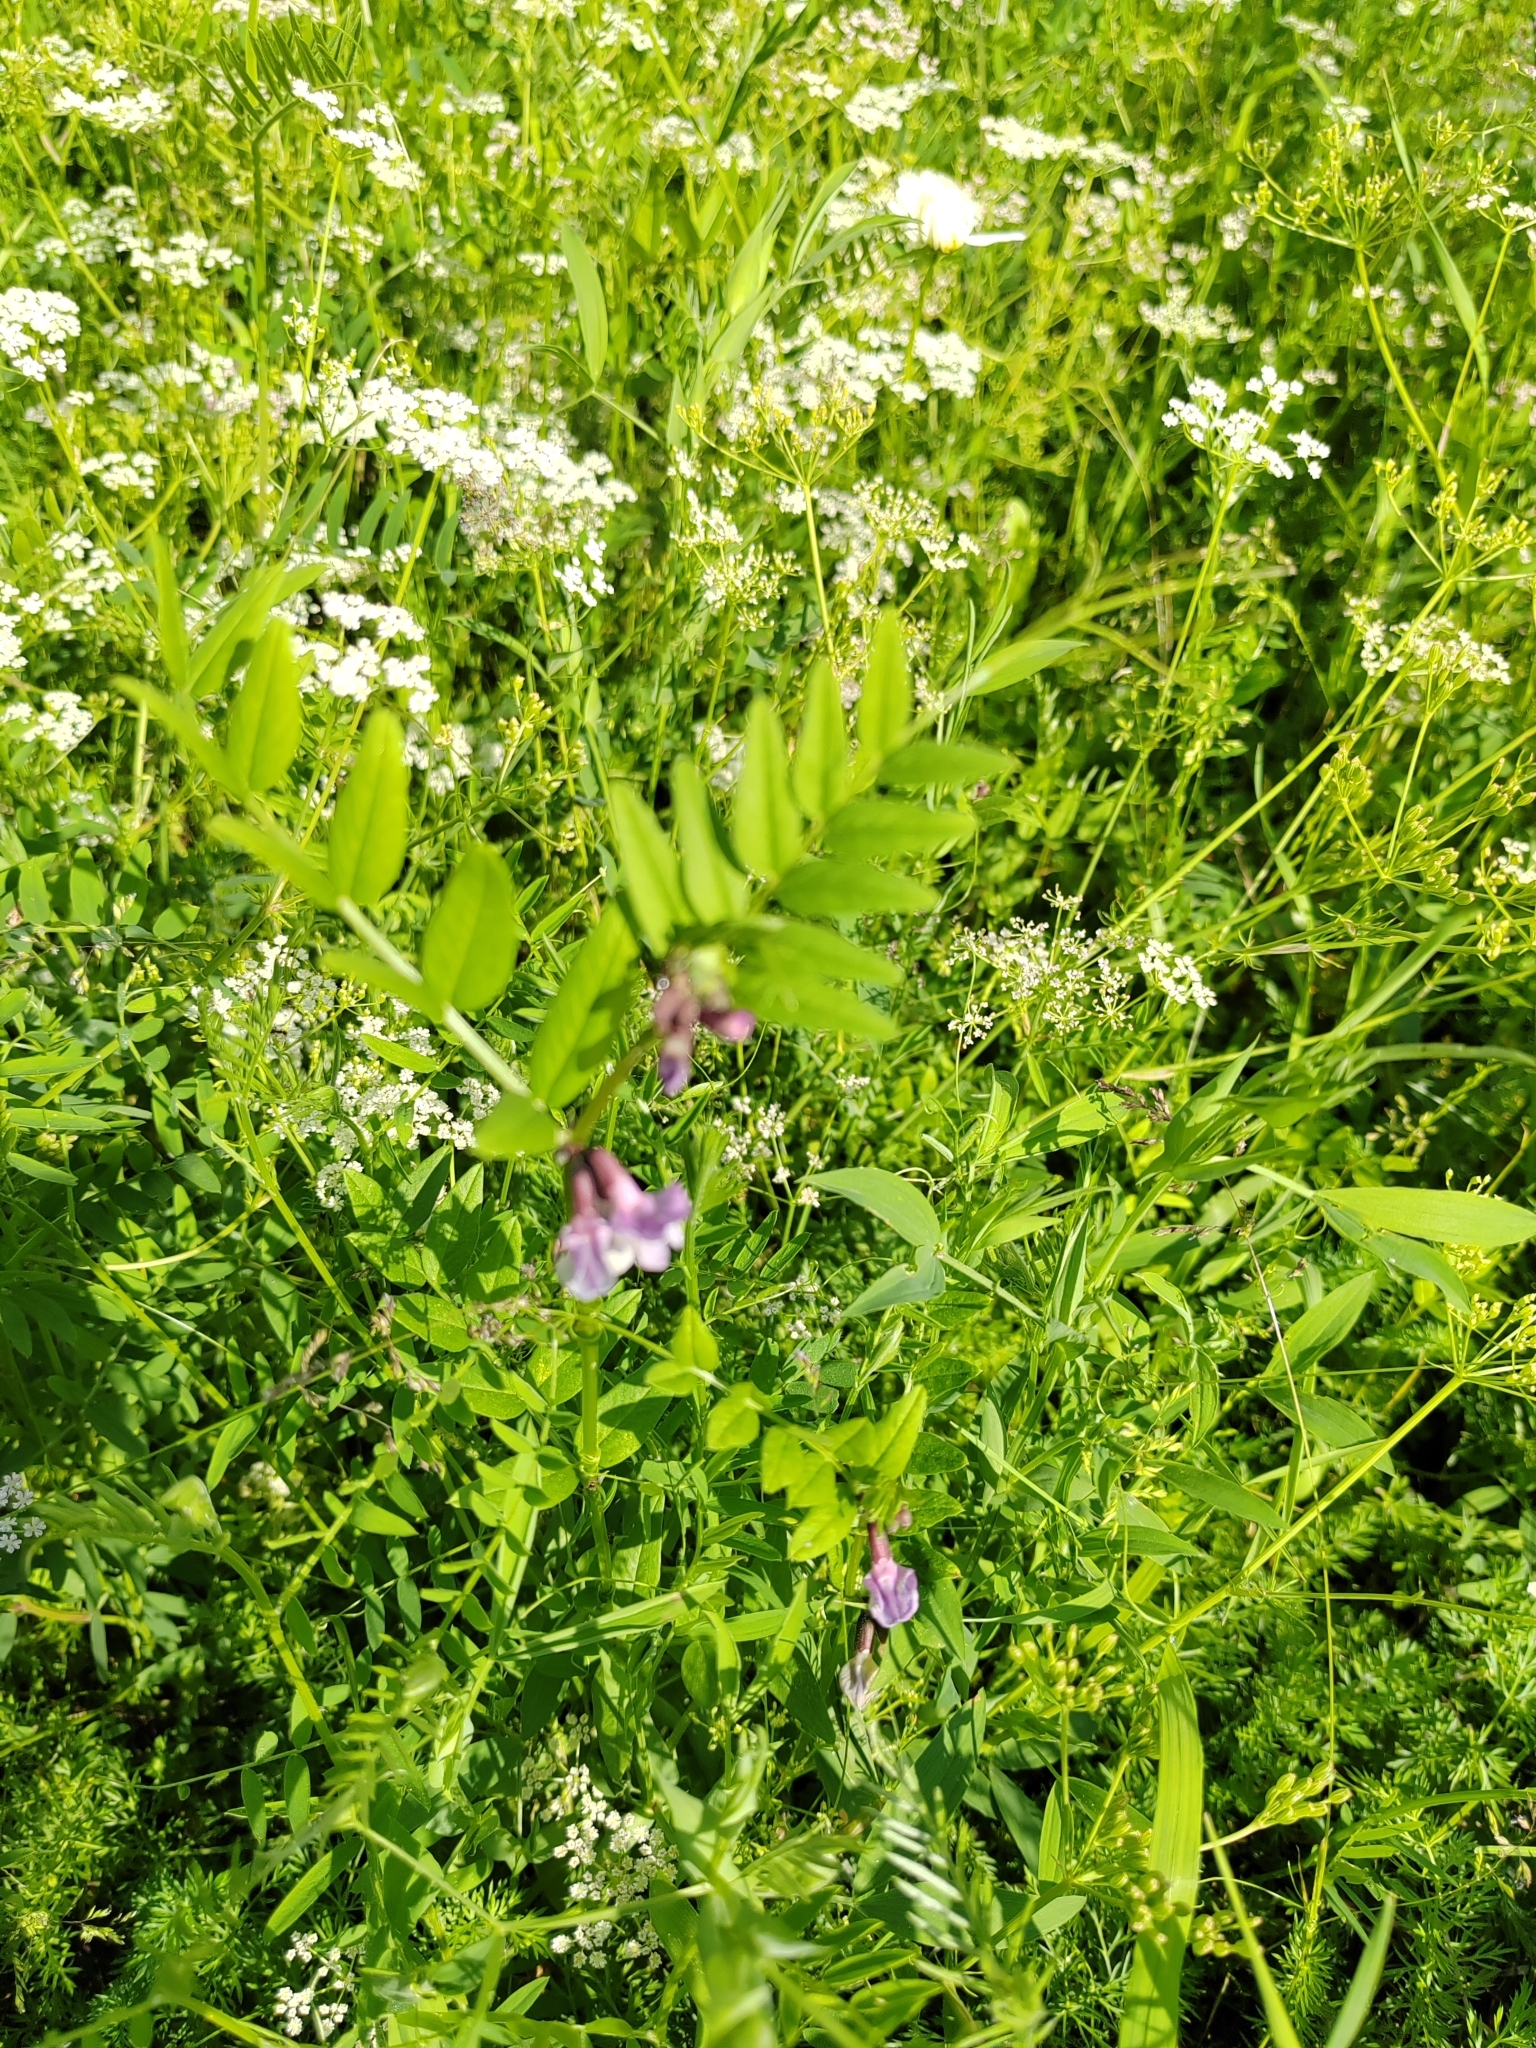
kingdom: Plantae
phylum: Tracheophyta
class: Magnoliopsida
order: Fabales
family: Fabaceae
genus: Vicia
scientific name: Vicia sepium
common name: Bush vetch
